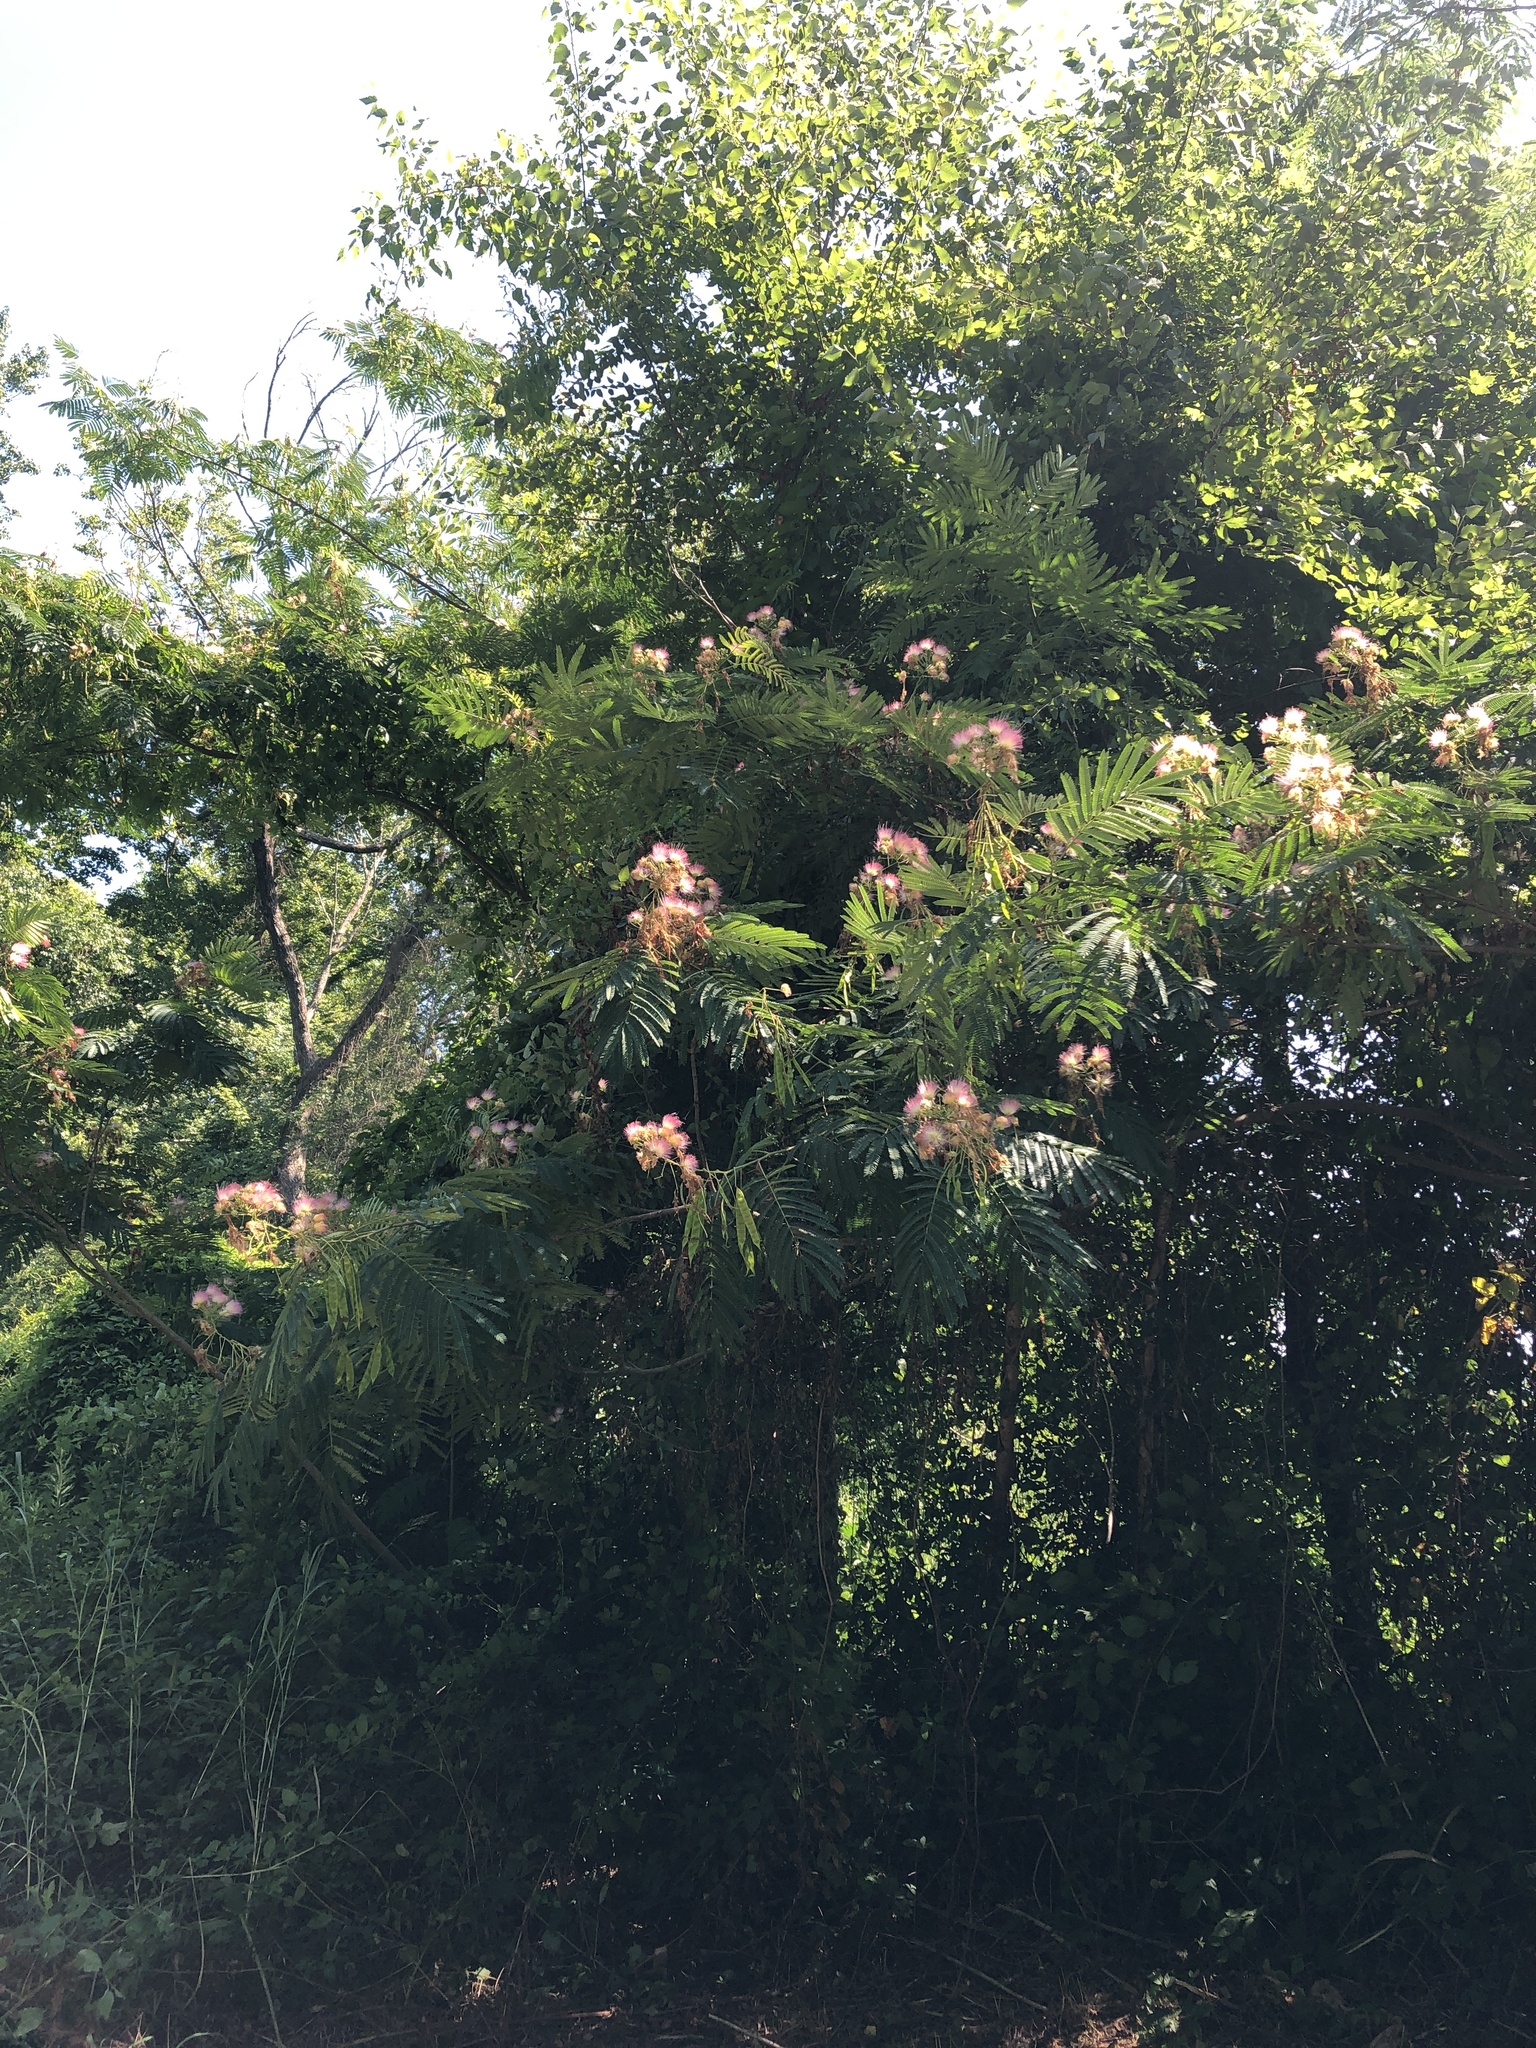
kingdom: Plantae
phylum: Tracheophyta
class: Magnoliopsida
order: Fabales
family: Fabaceae
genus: Albizia
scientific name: Albizia julibrissin
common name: Silktree
